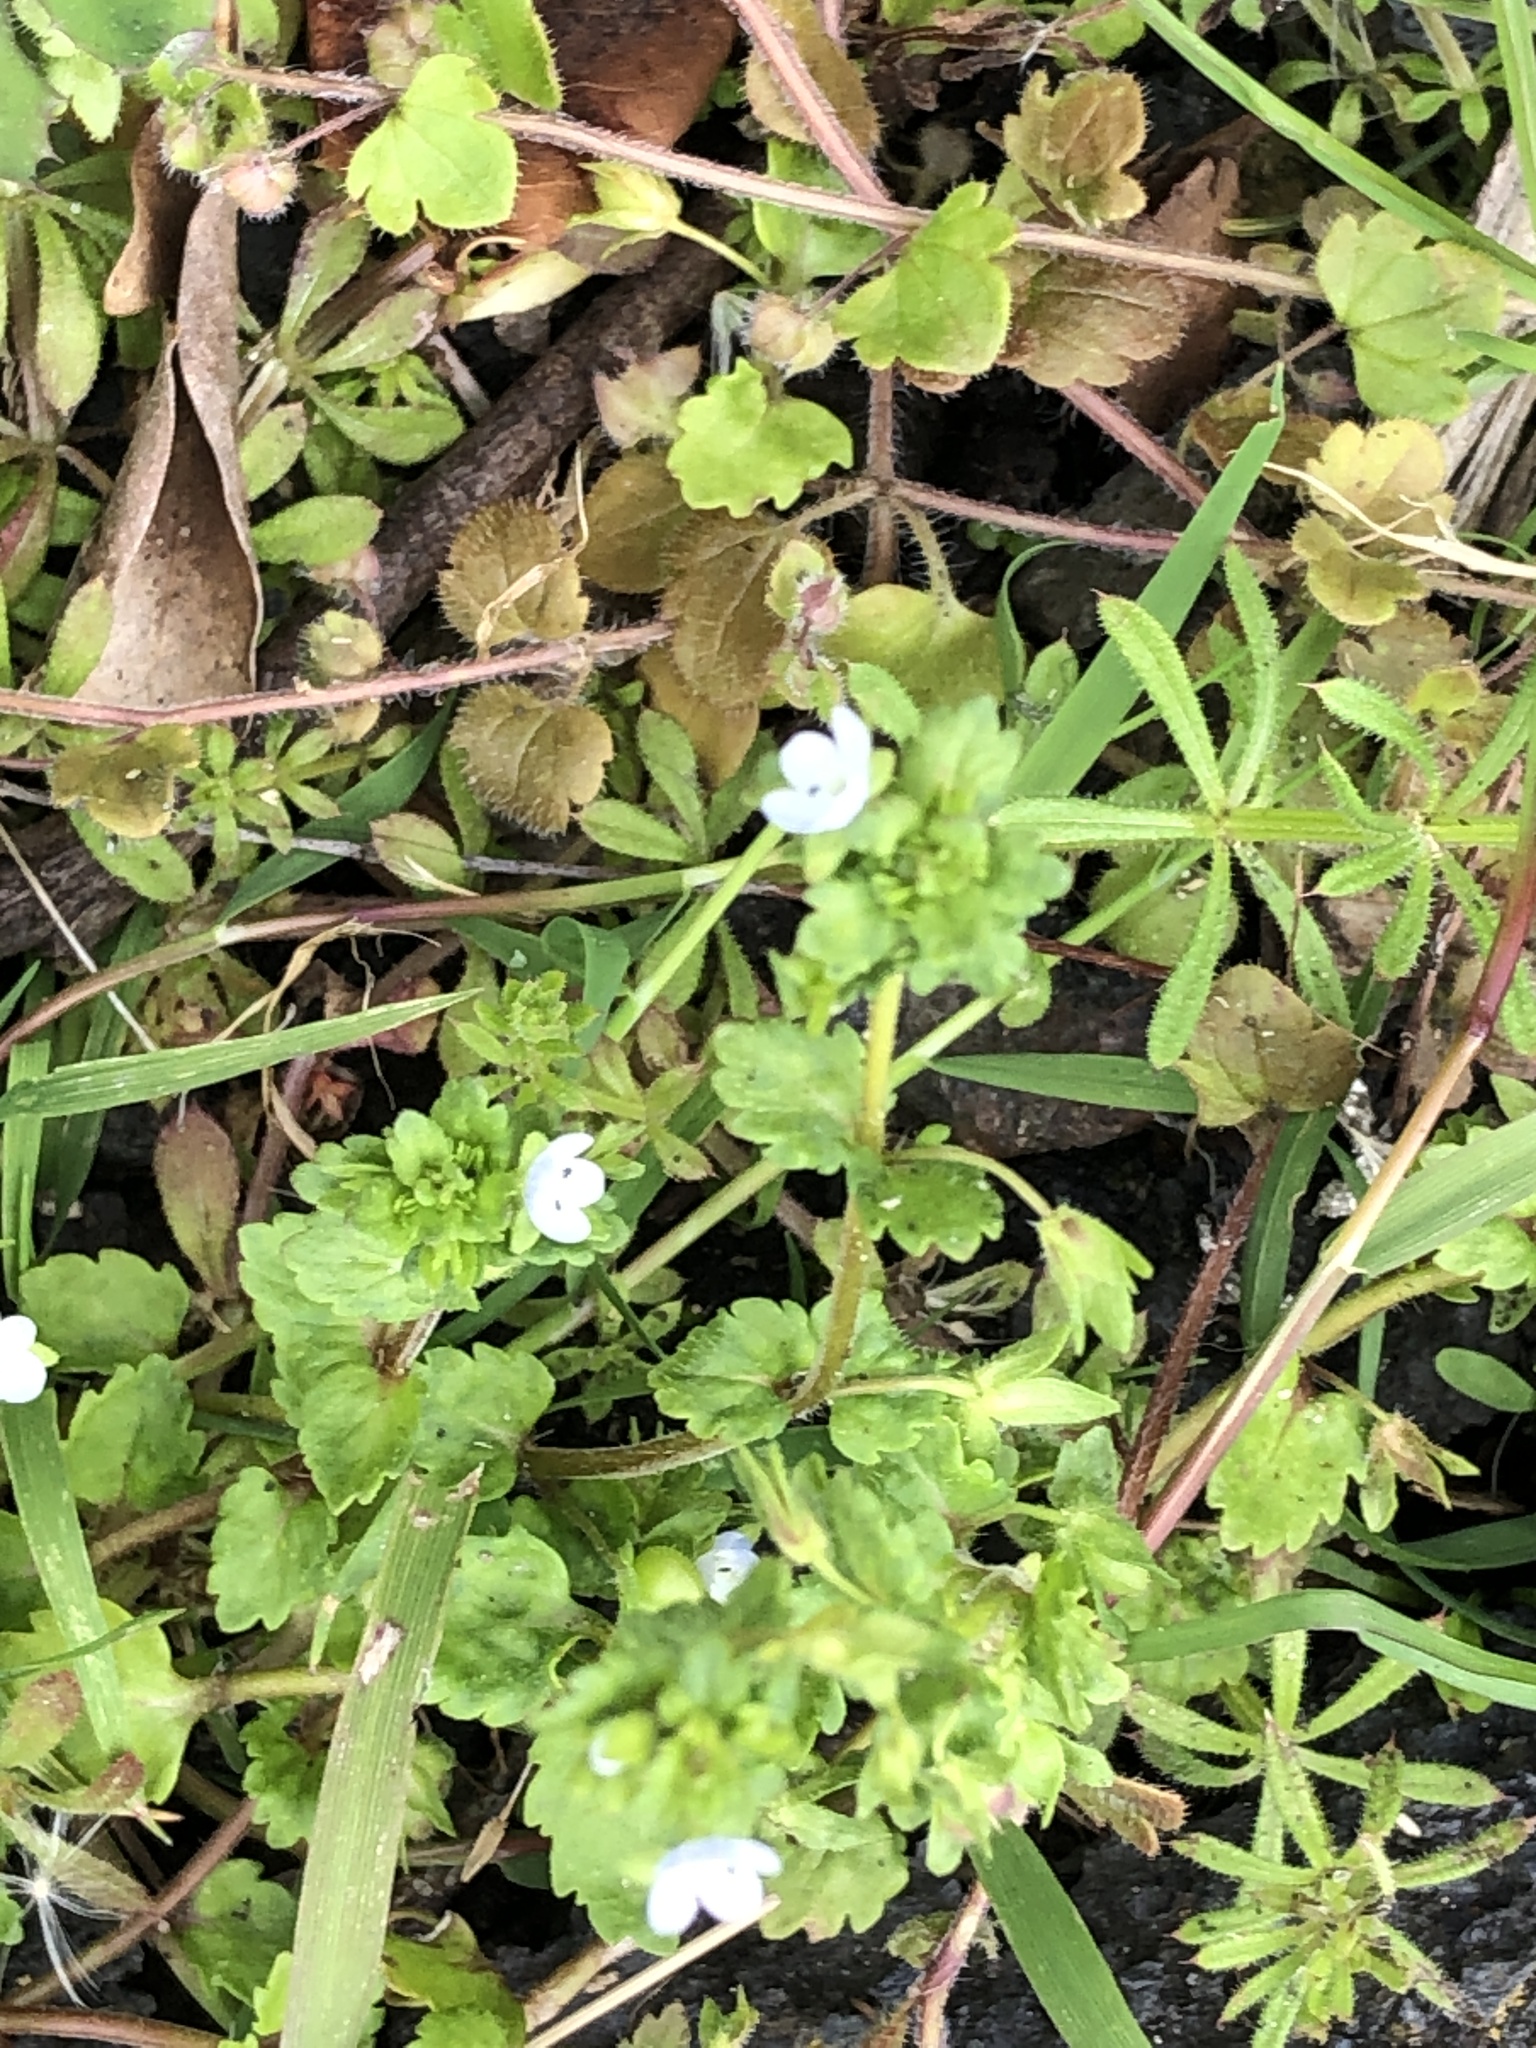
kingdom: Plantae
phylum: Tracheophyta
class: Magnoliopsida
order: Lamiales
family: Plantaginaceae
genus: Veronica
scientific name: Veronica agrestis
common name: Green field-speedwell
